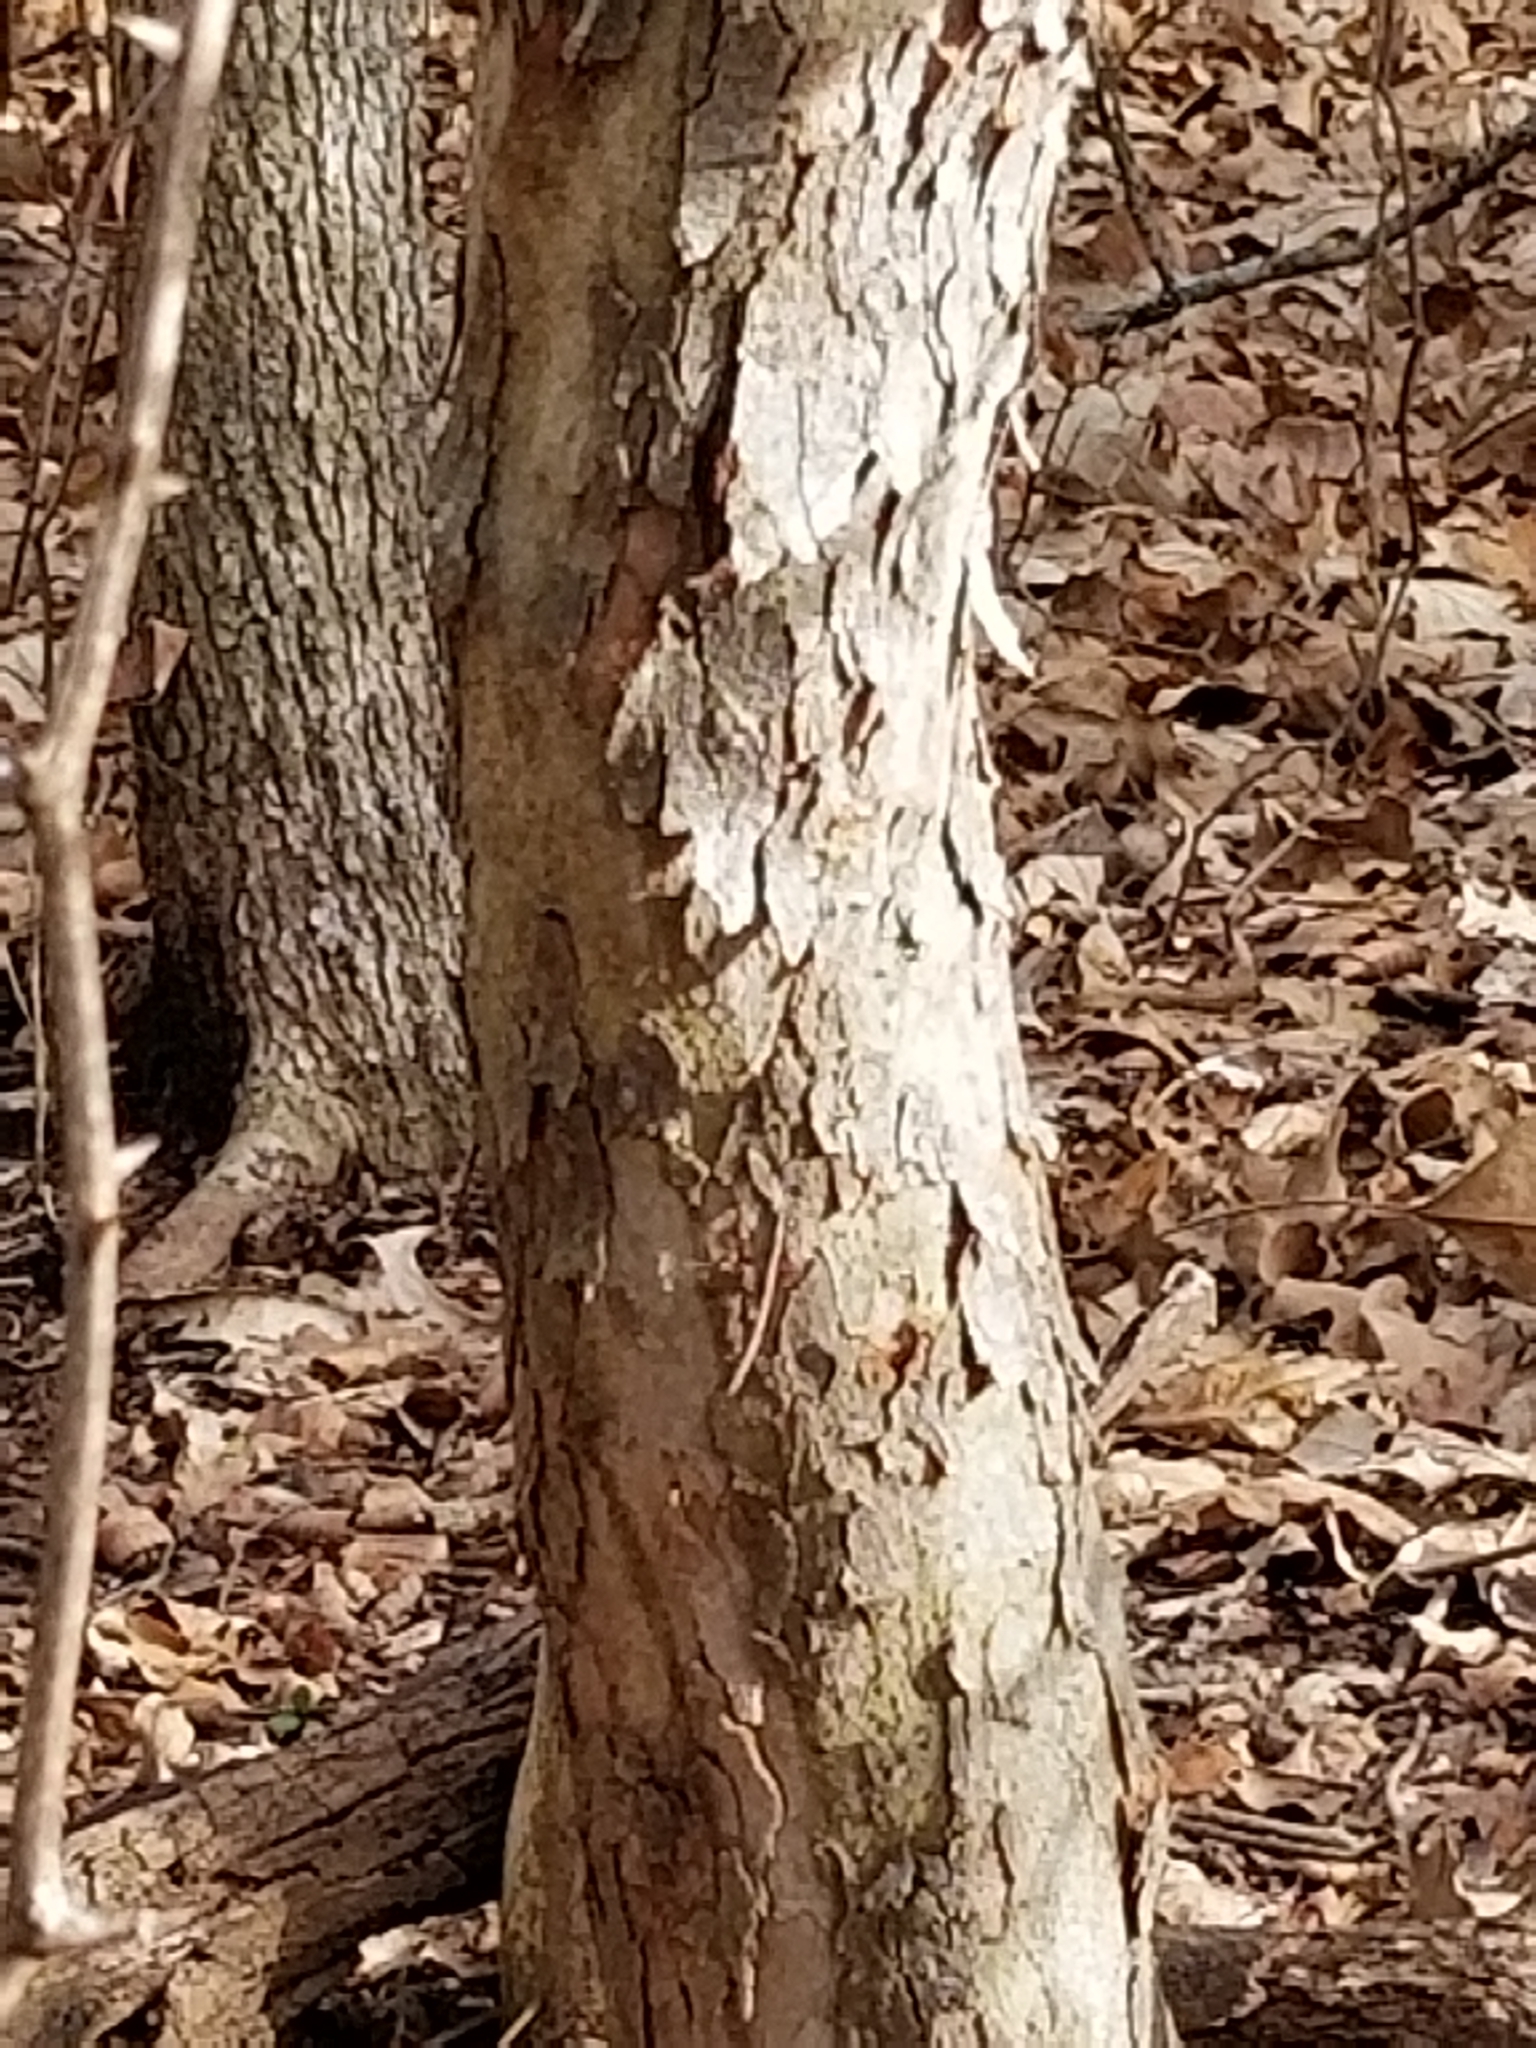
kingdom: Plantae
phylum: Tracheophyta
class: Magnoliopsida
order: Rosales
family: Rosaceae
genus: Crataegus
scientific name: Crataegus mollis
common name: Downy hawthorn
